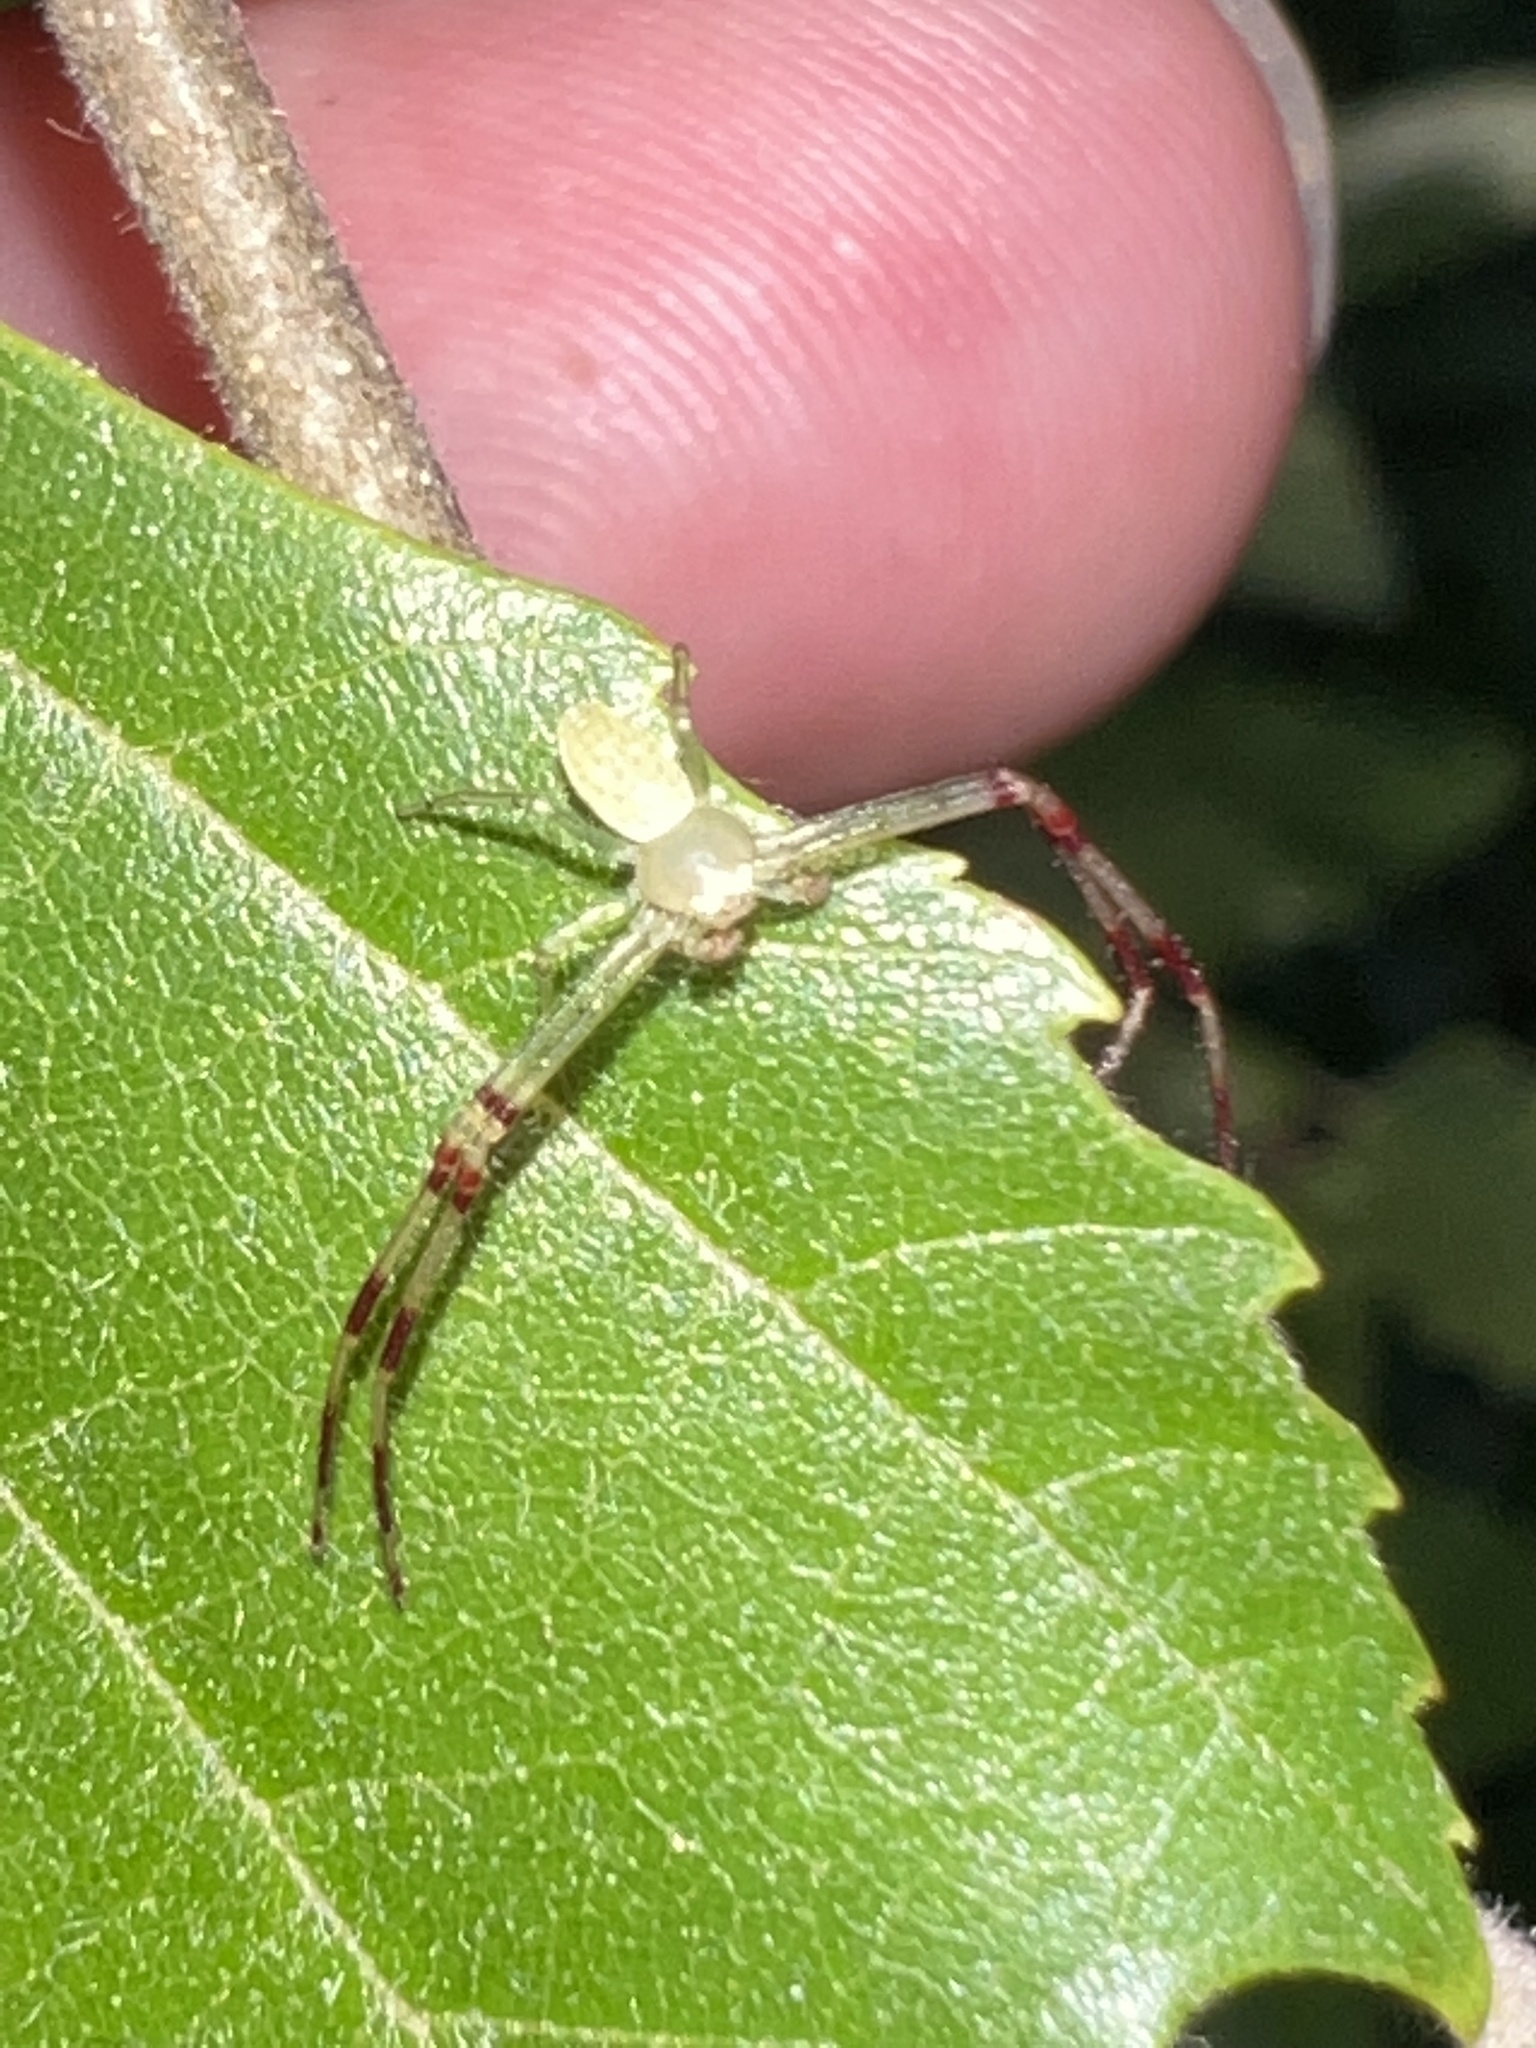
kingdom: Animalia
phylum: Arthropoda
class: Arachnida
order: Araneae
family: Thomisidae
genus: Misumessus
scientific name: Misumessus oblongus
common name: American green crab spider
